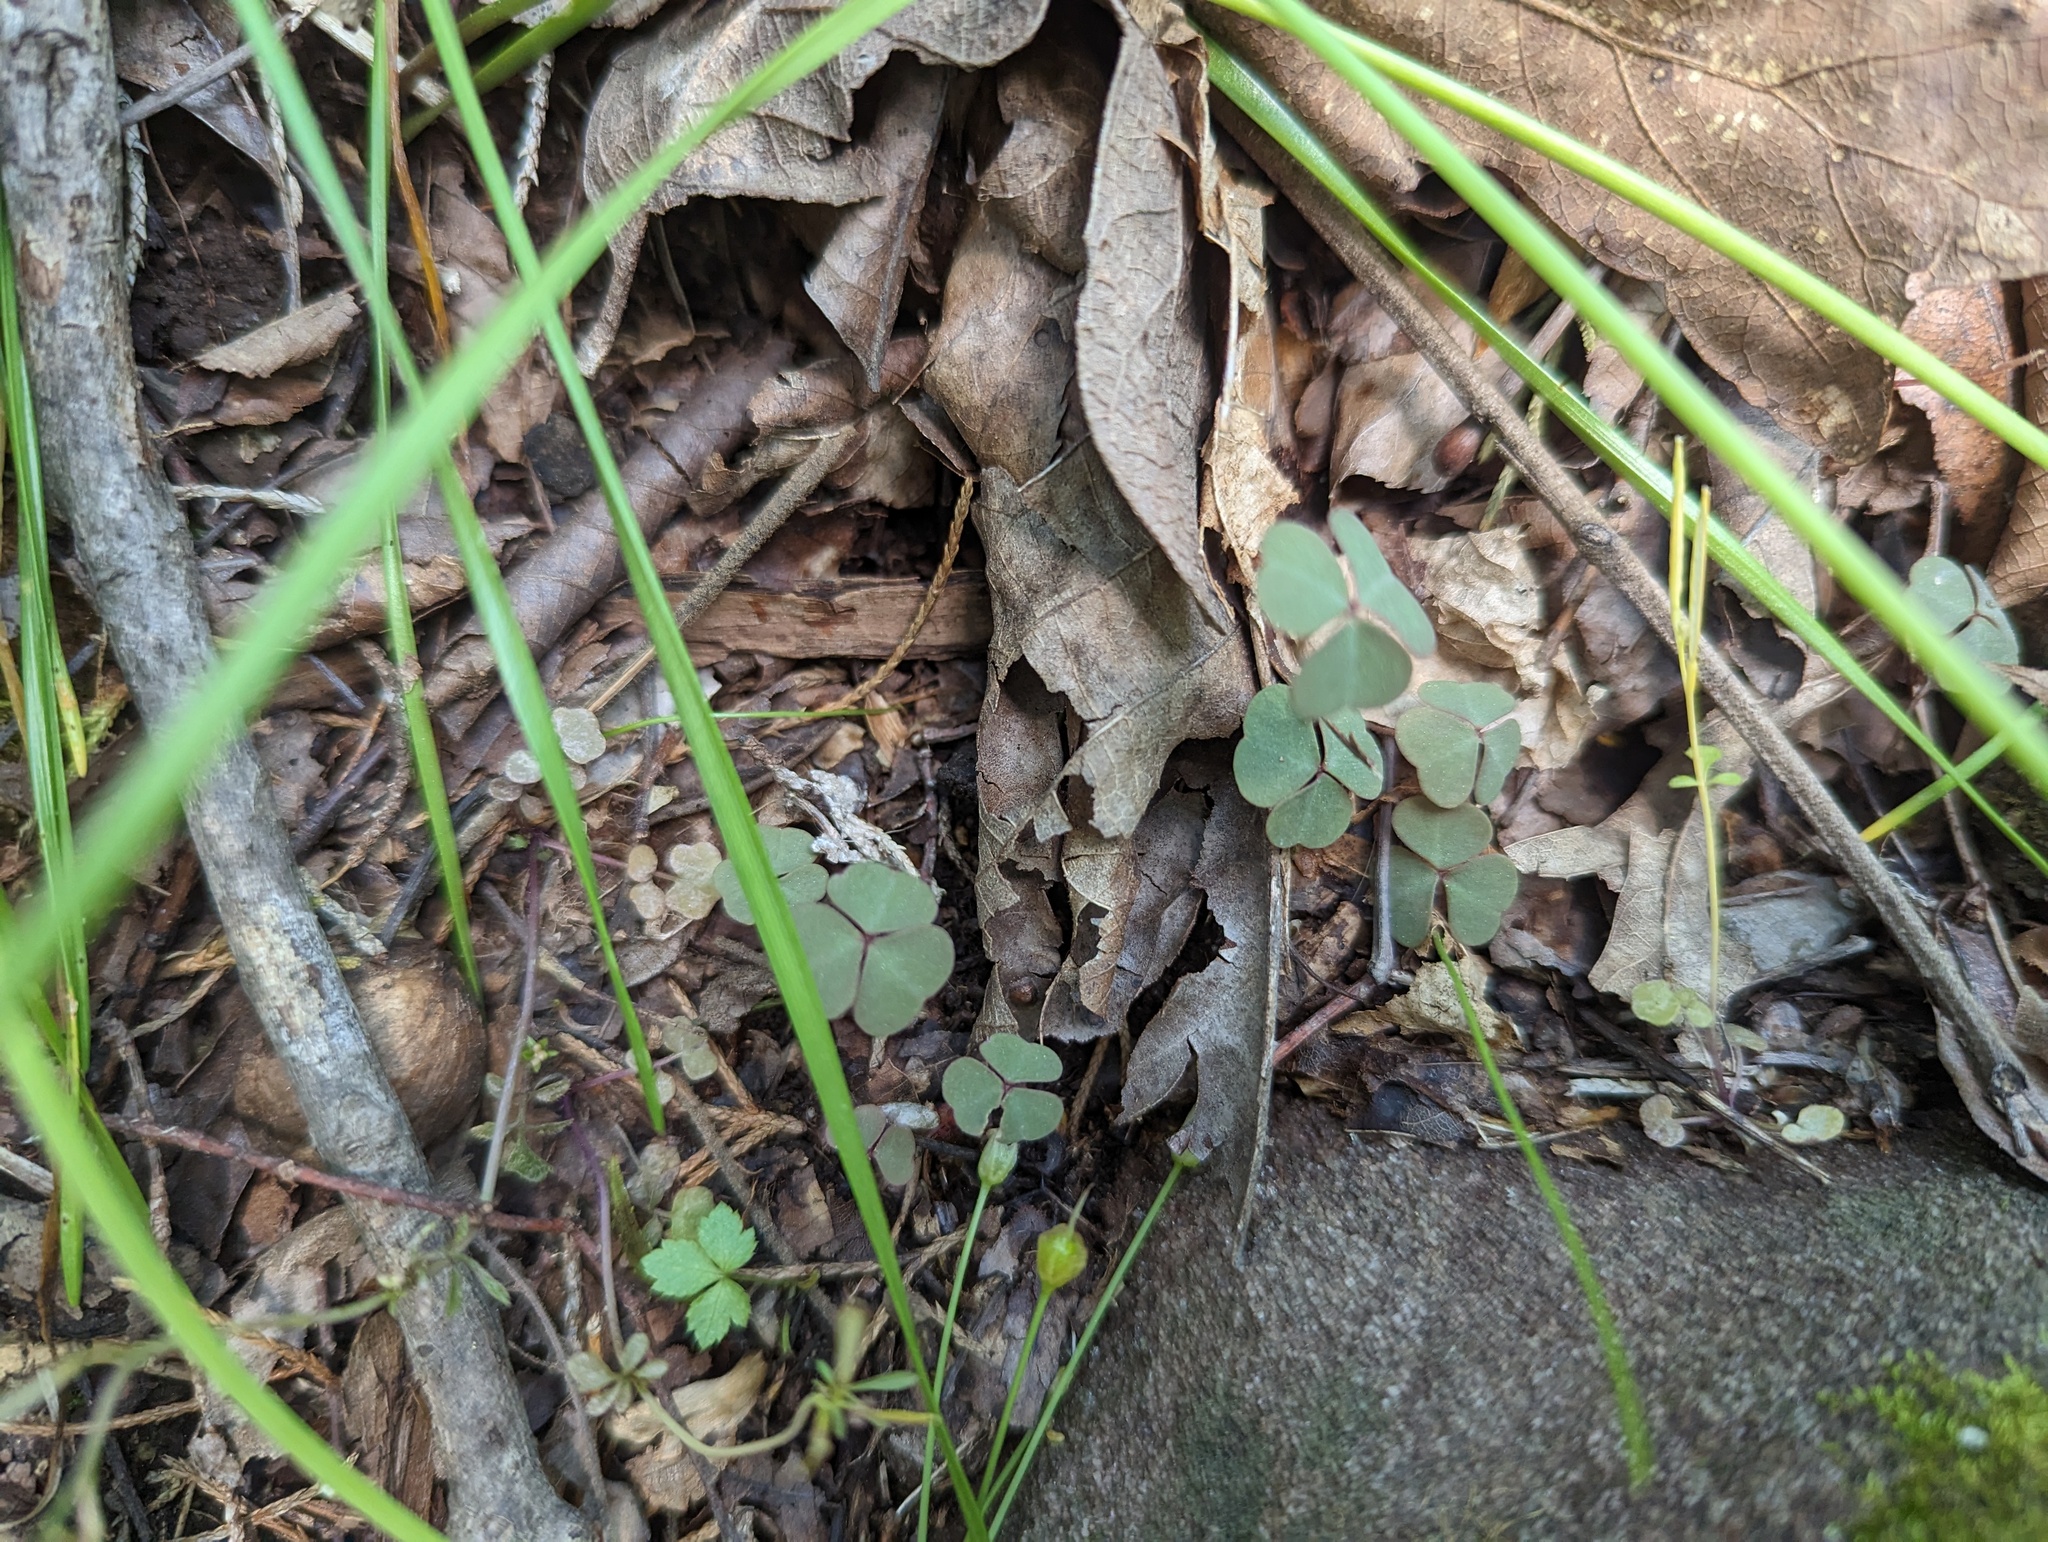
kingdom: Plantae
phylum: Tracheophyta
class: Magnoliopsida
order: Oxalidales
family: Oxalidaceae
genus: Oxalis
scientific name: Oxalis violacea
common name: Violet wood-sorrel
